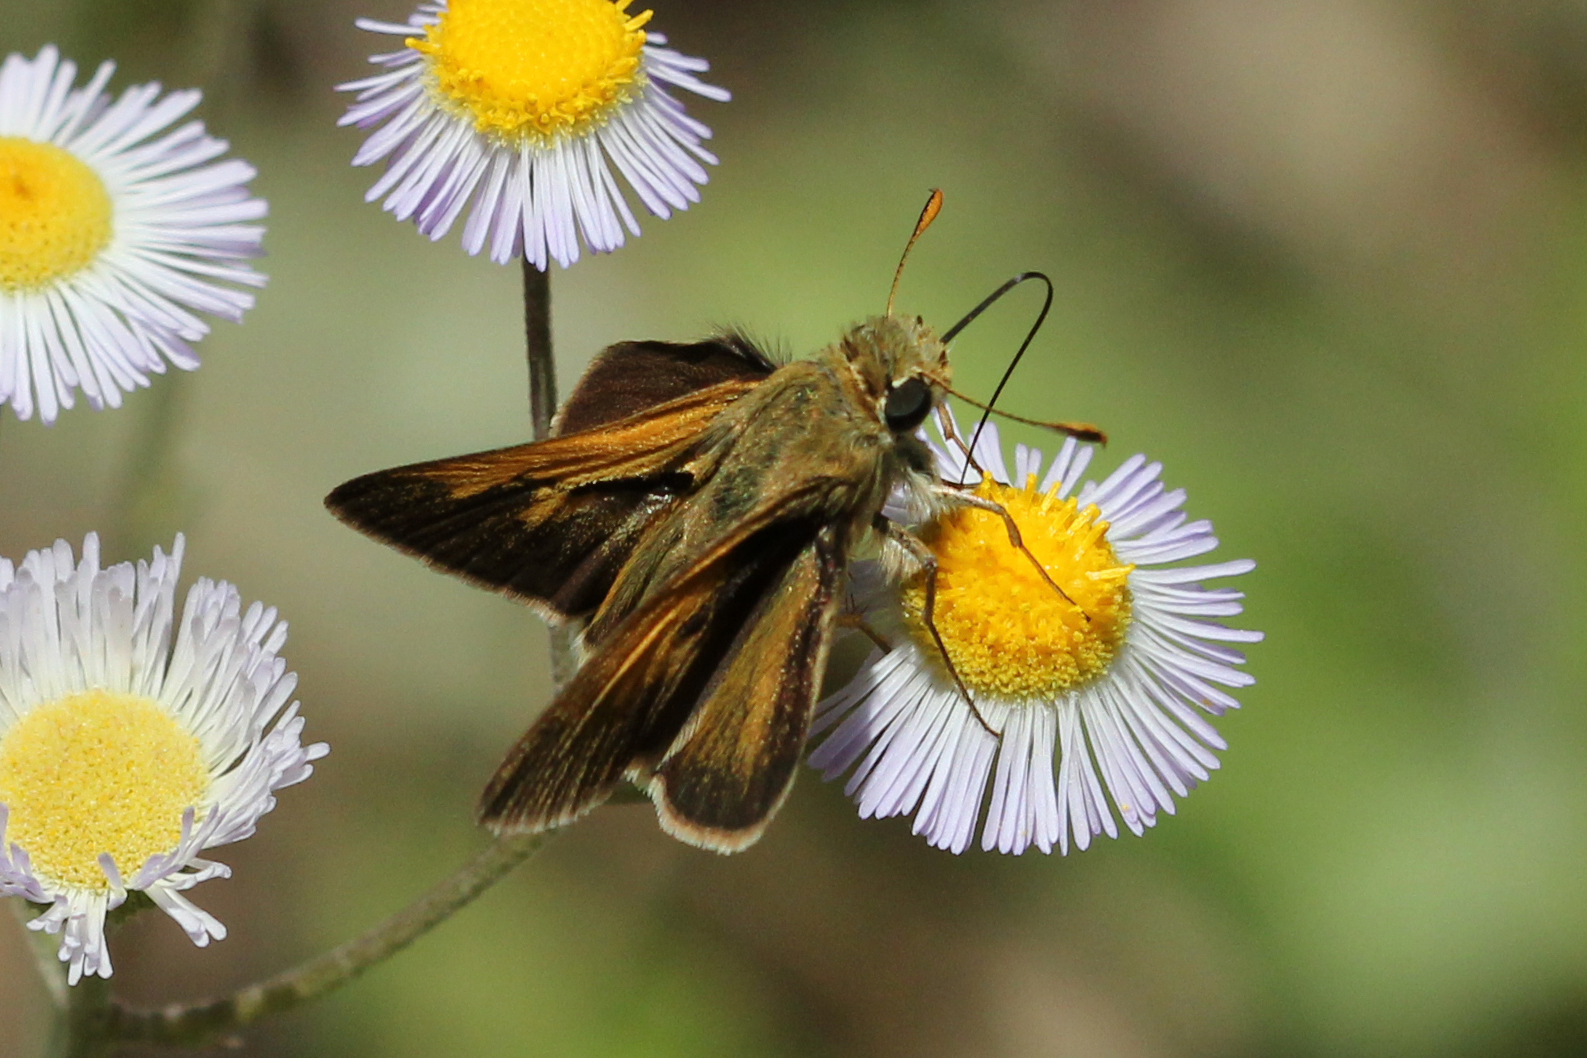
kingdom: Animalia
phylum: Arthropoda
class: Insecta
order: Lepidoptera
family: Hesperiidae
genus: Polites
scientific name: Polites themistocles
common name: Tawny-edged skipper
